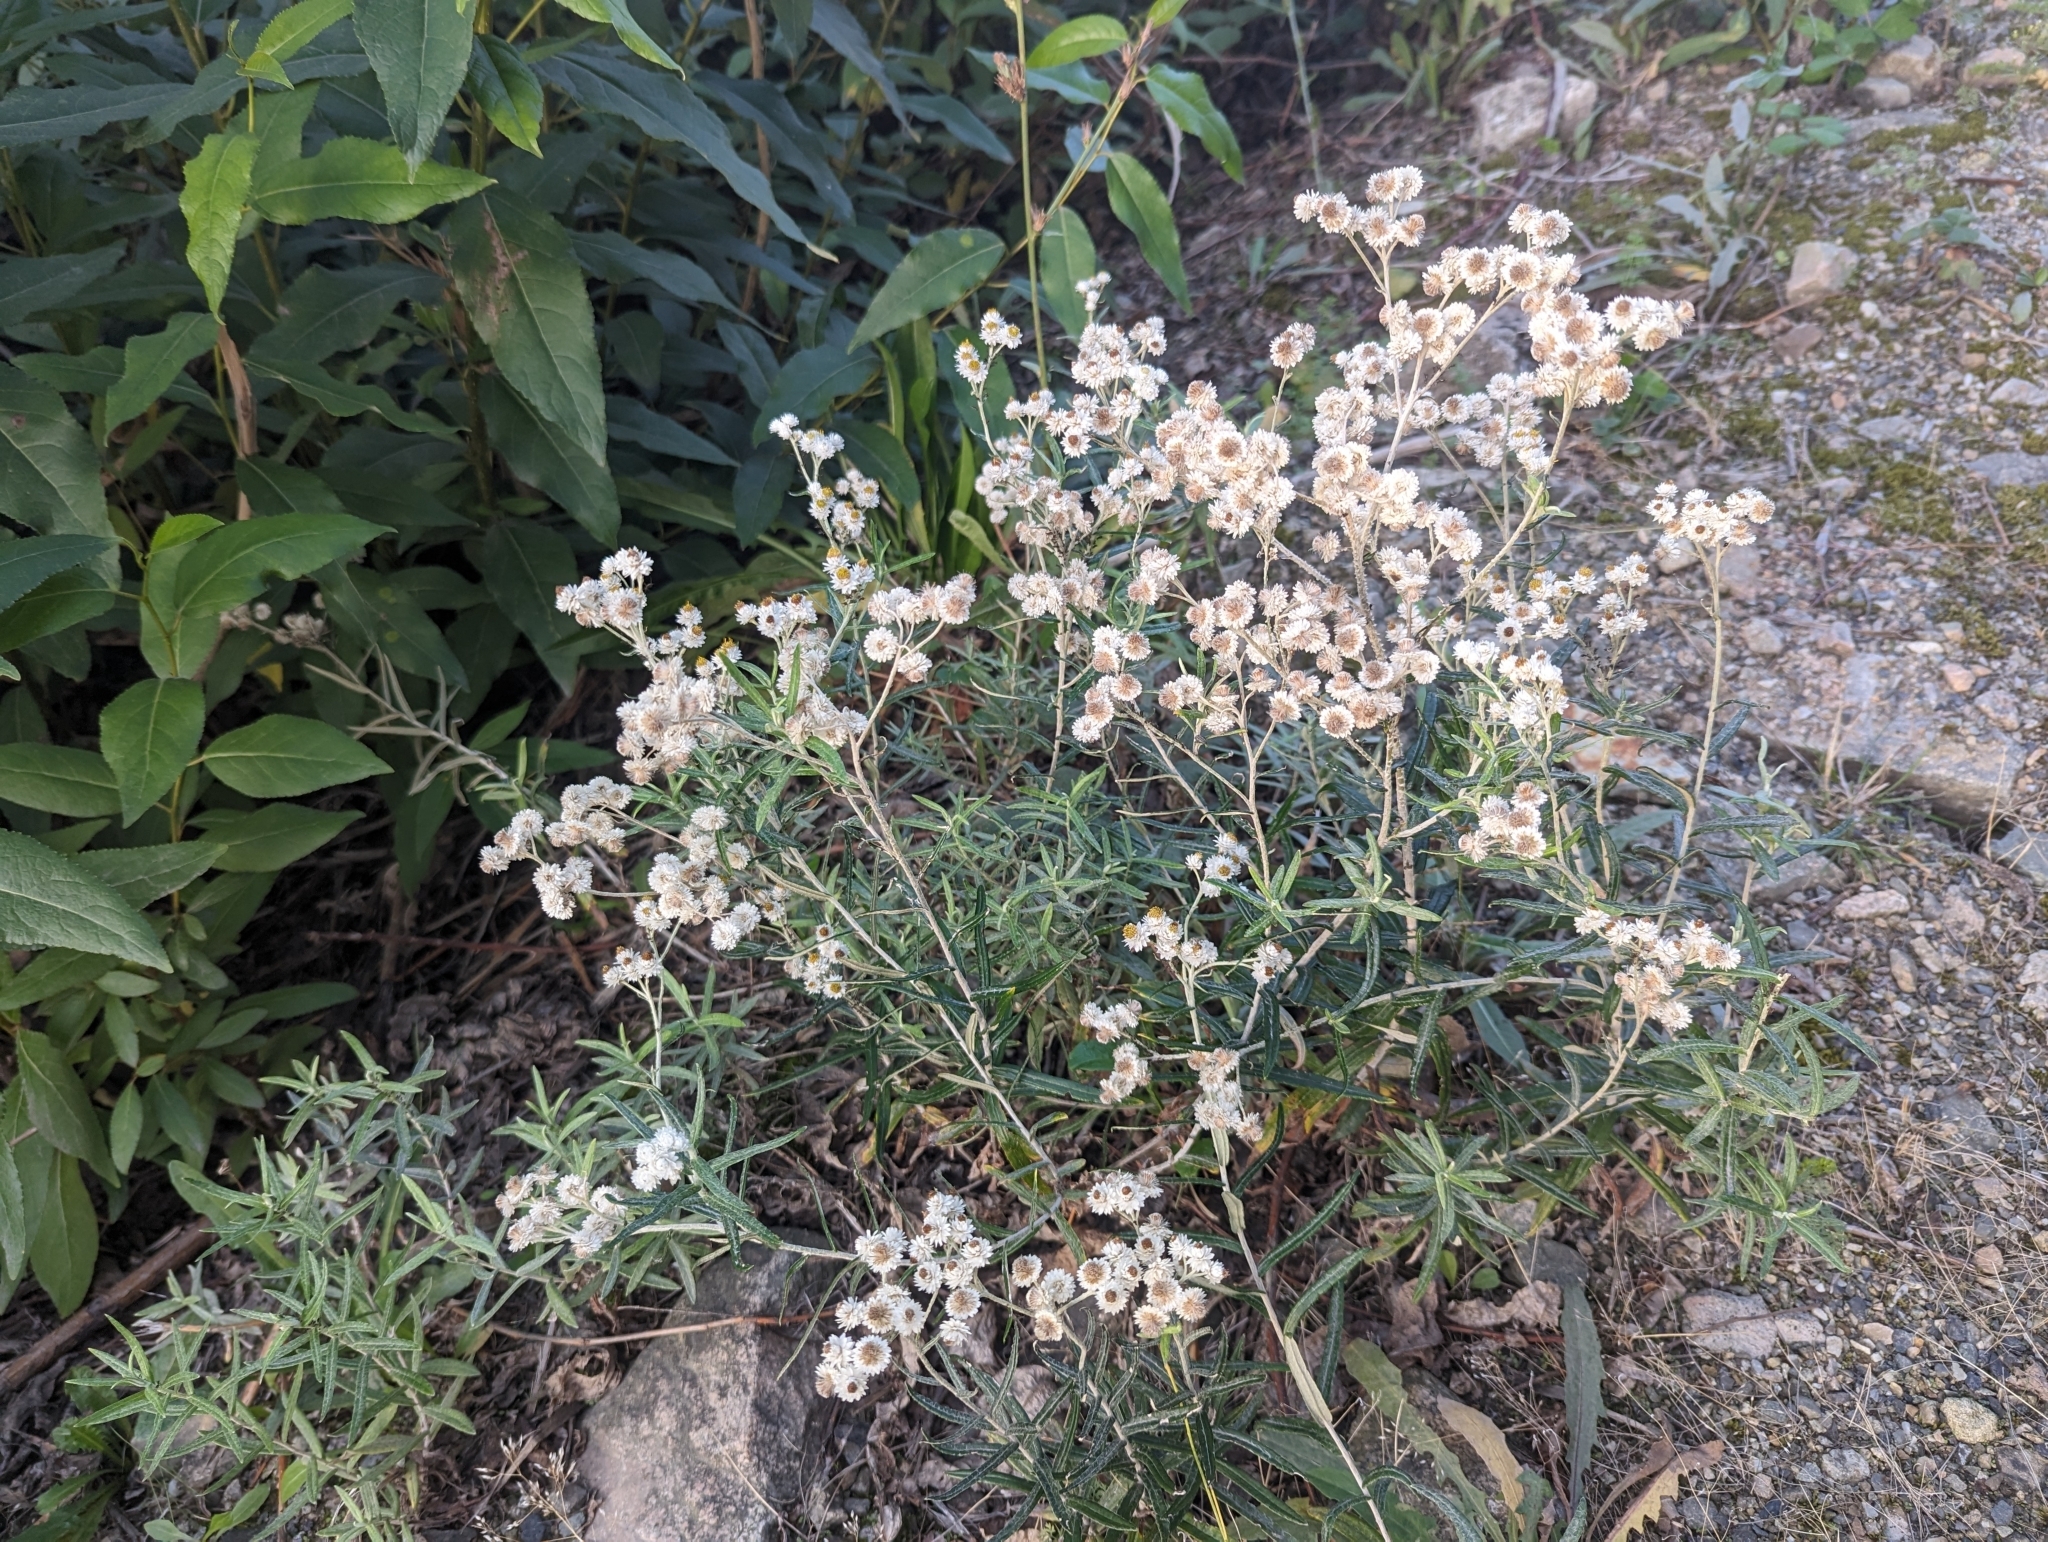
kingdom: Plantae
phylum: Tracheophyta
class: Magnoliopsida
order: Asterales
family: Asteraceae
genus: Anaphalis
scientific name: Anaphalis margaritacea
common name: Pearly everlasting
